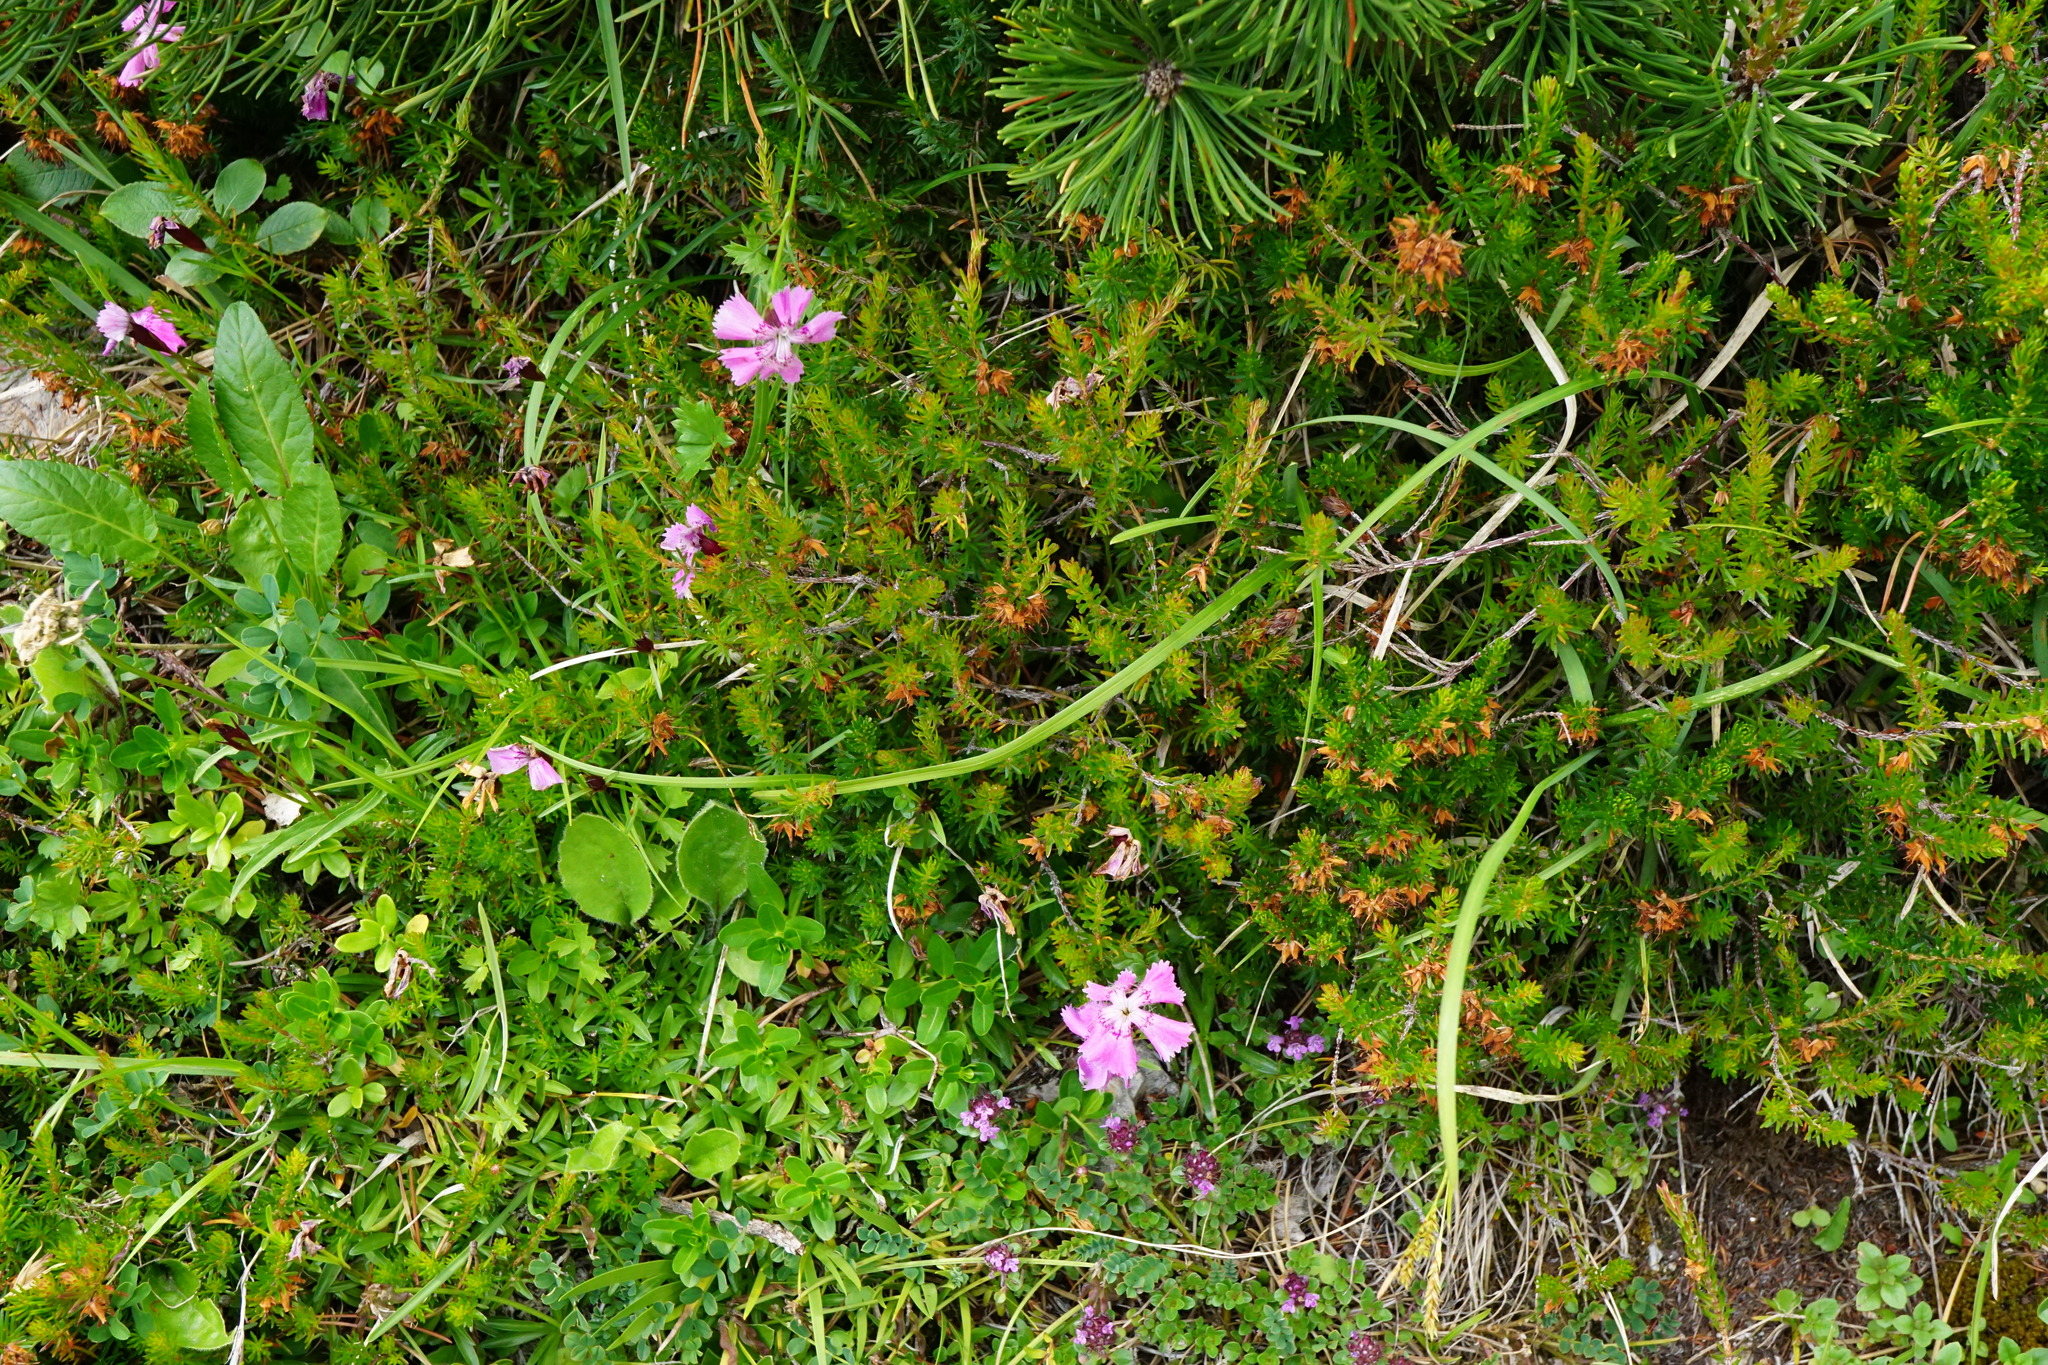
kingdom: Plantae
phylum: Tracheophyta
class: Magnoliopsida
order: Caryophyllales
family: Caryophyllaceae
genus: Dianthus
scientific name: Dianthus alpinus
